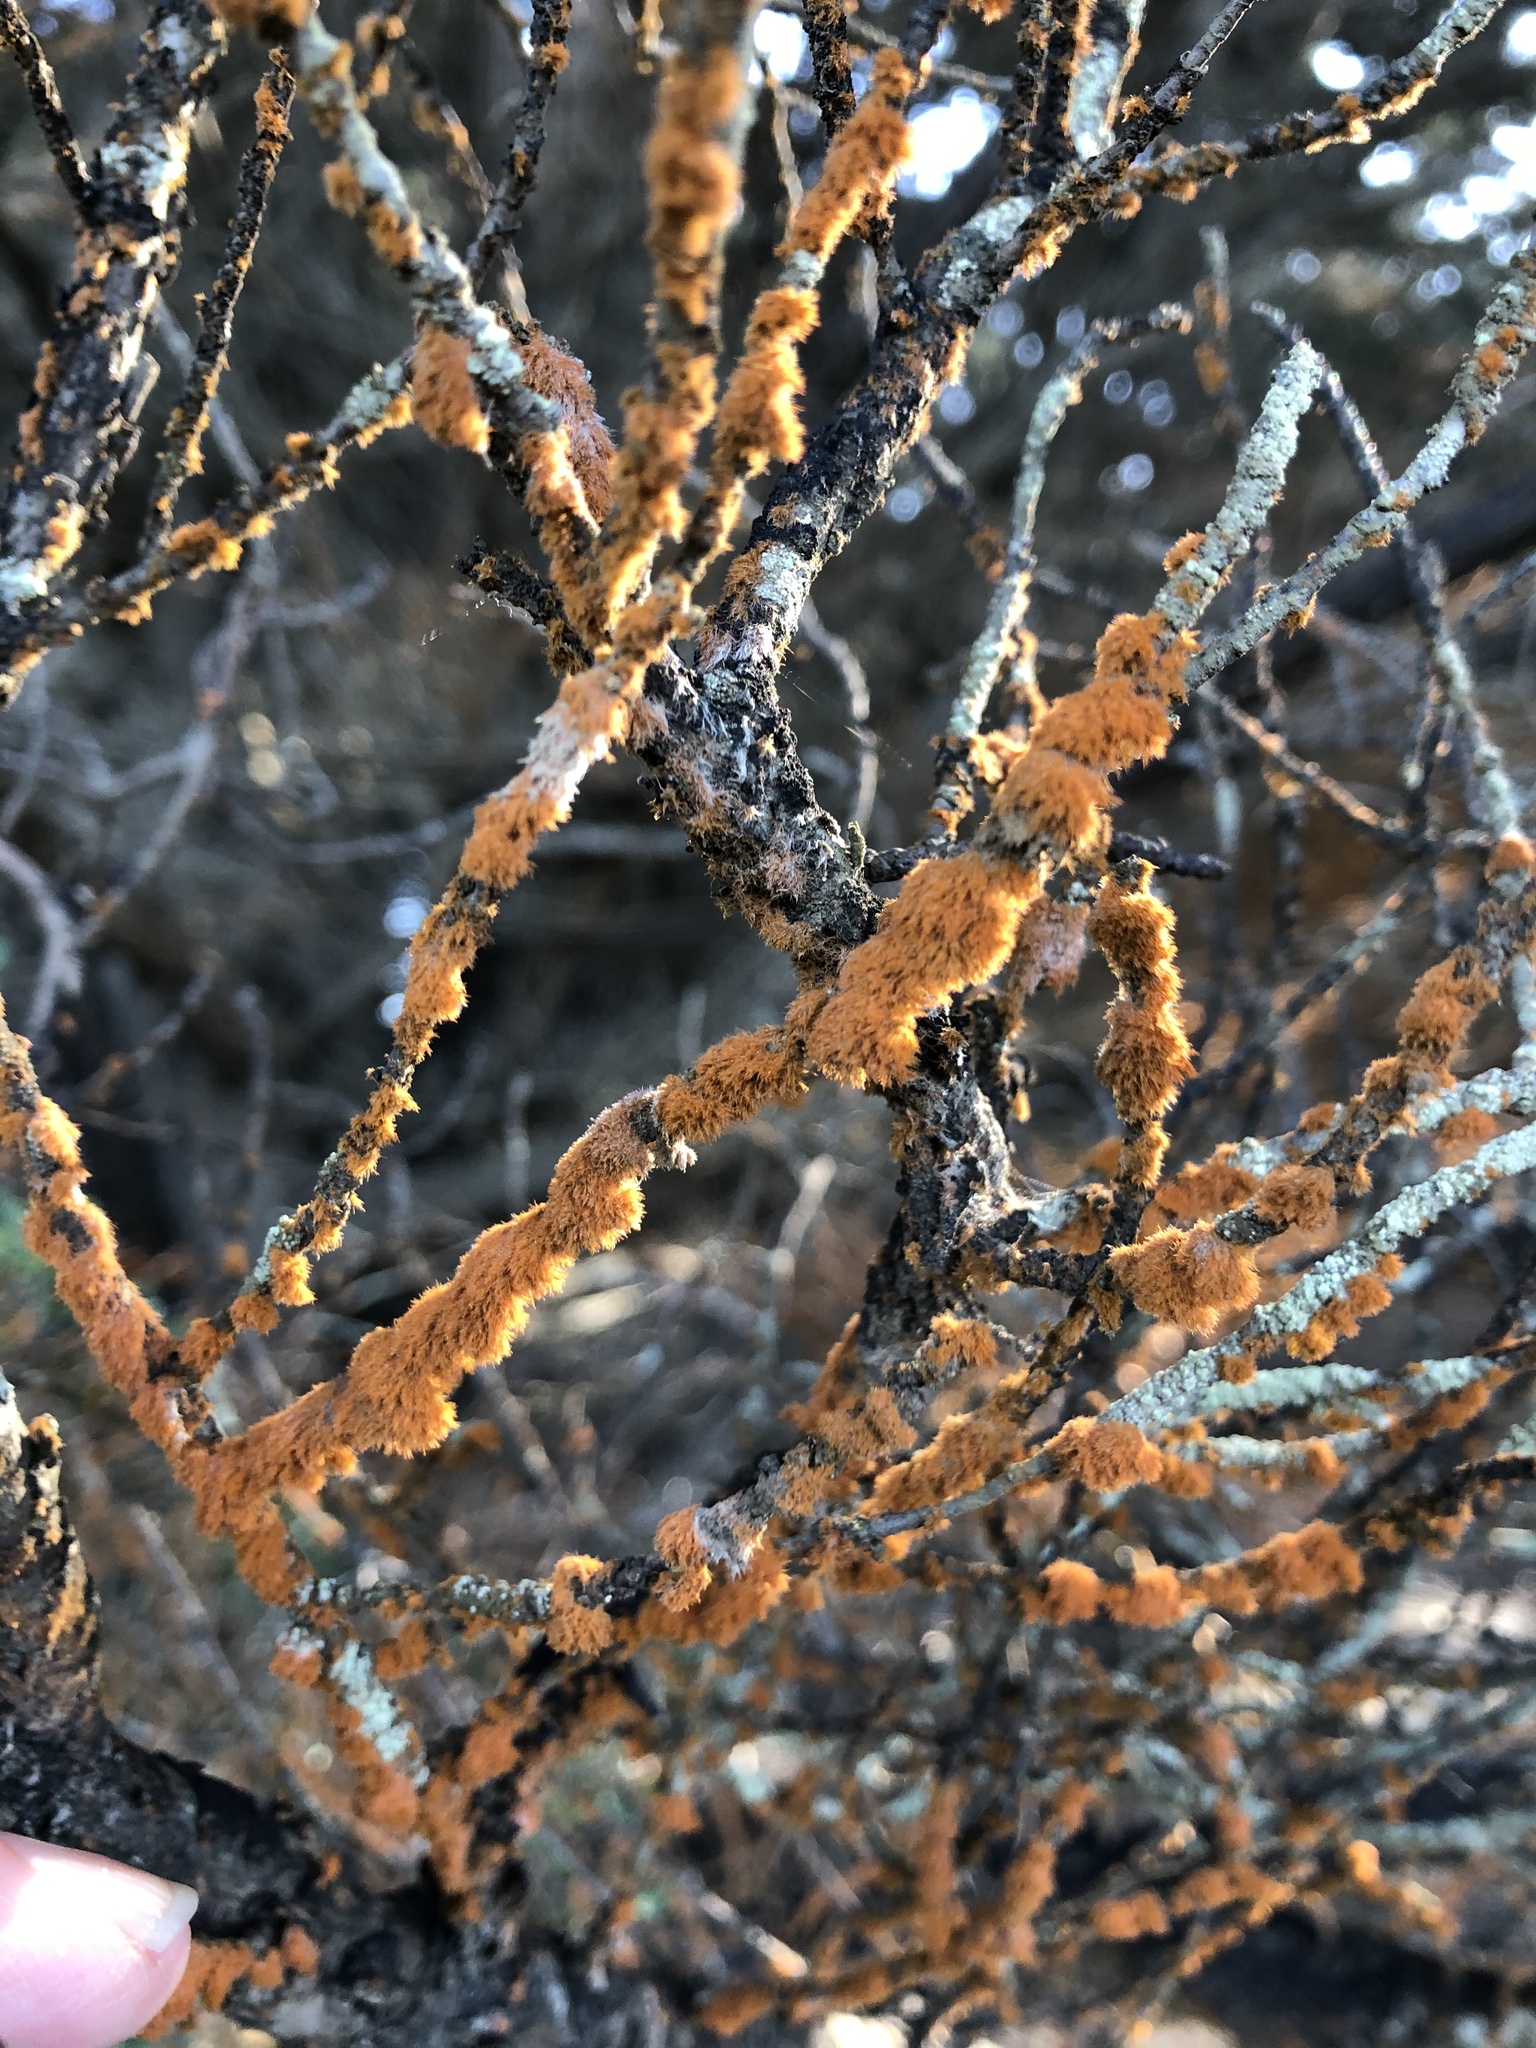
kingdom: Plantae
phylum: Chlorophyta
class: Ulvophyceae
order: Trentepohliales
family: Trentepohliaceae
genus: Trentepohlia
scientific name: Trentepohlia aurea
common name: Orange rock hair
